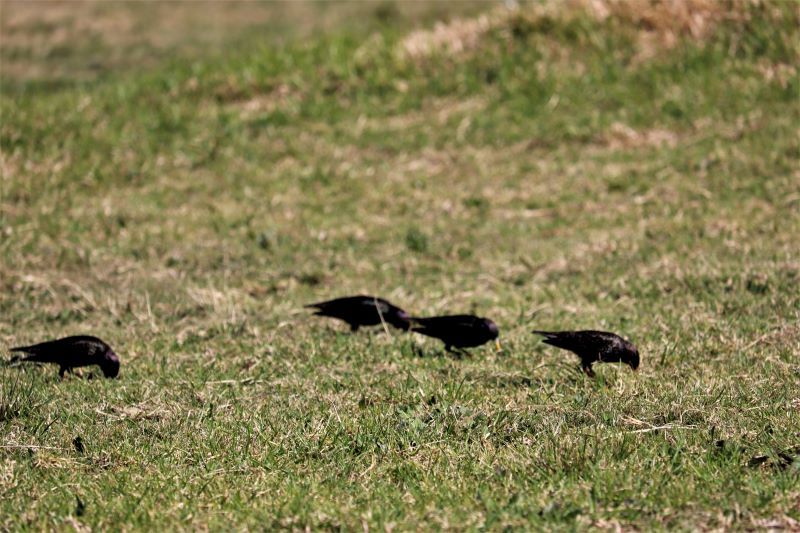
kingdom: Animalia
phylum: Chordata
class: Aves
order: Passeriformes
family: Sturnidae
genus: Sturnus
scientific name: Sturnus vulgaris
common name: Common starling
